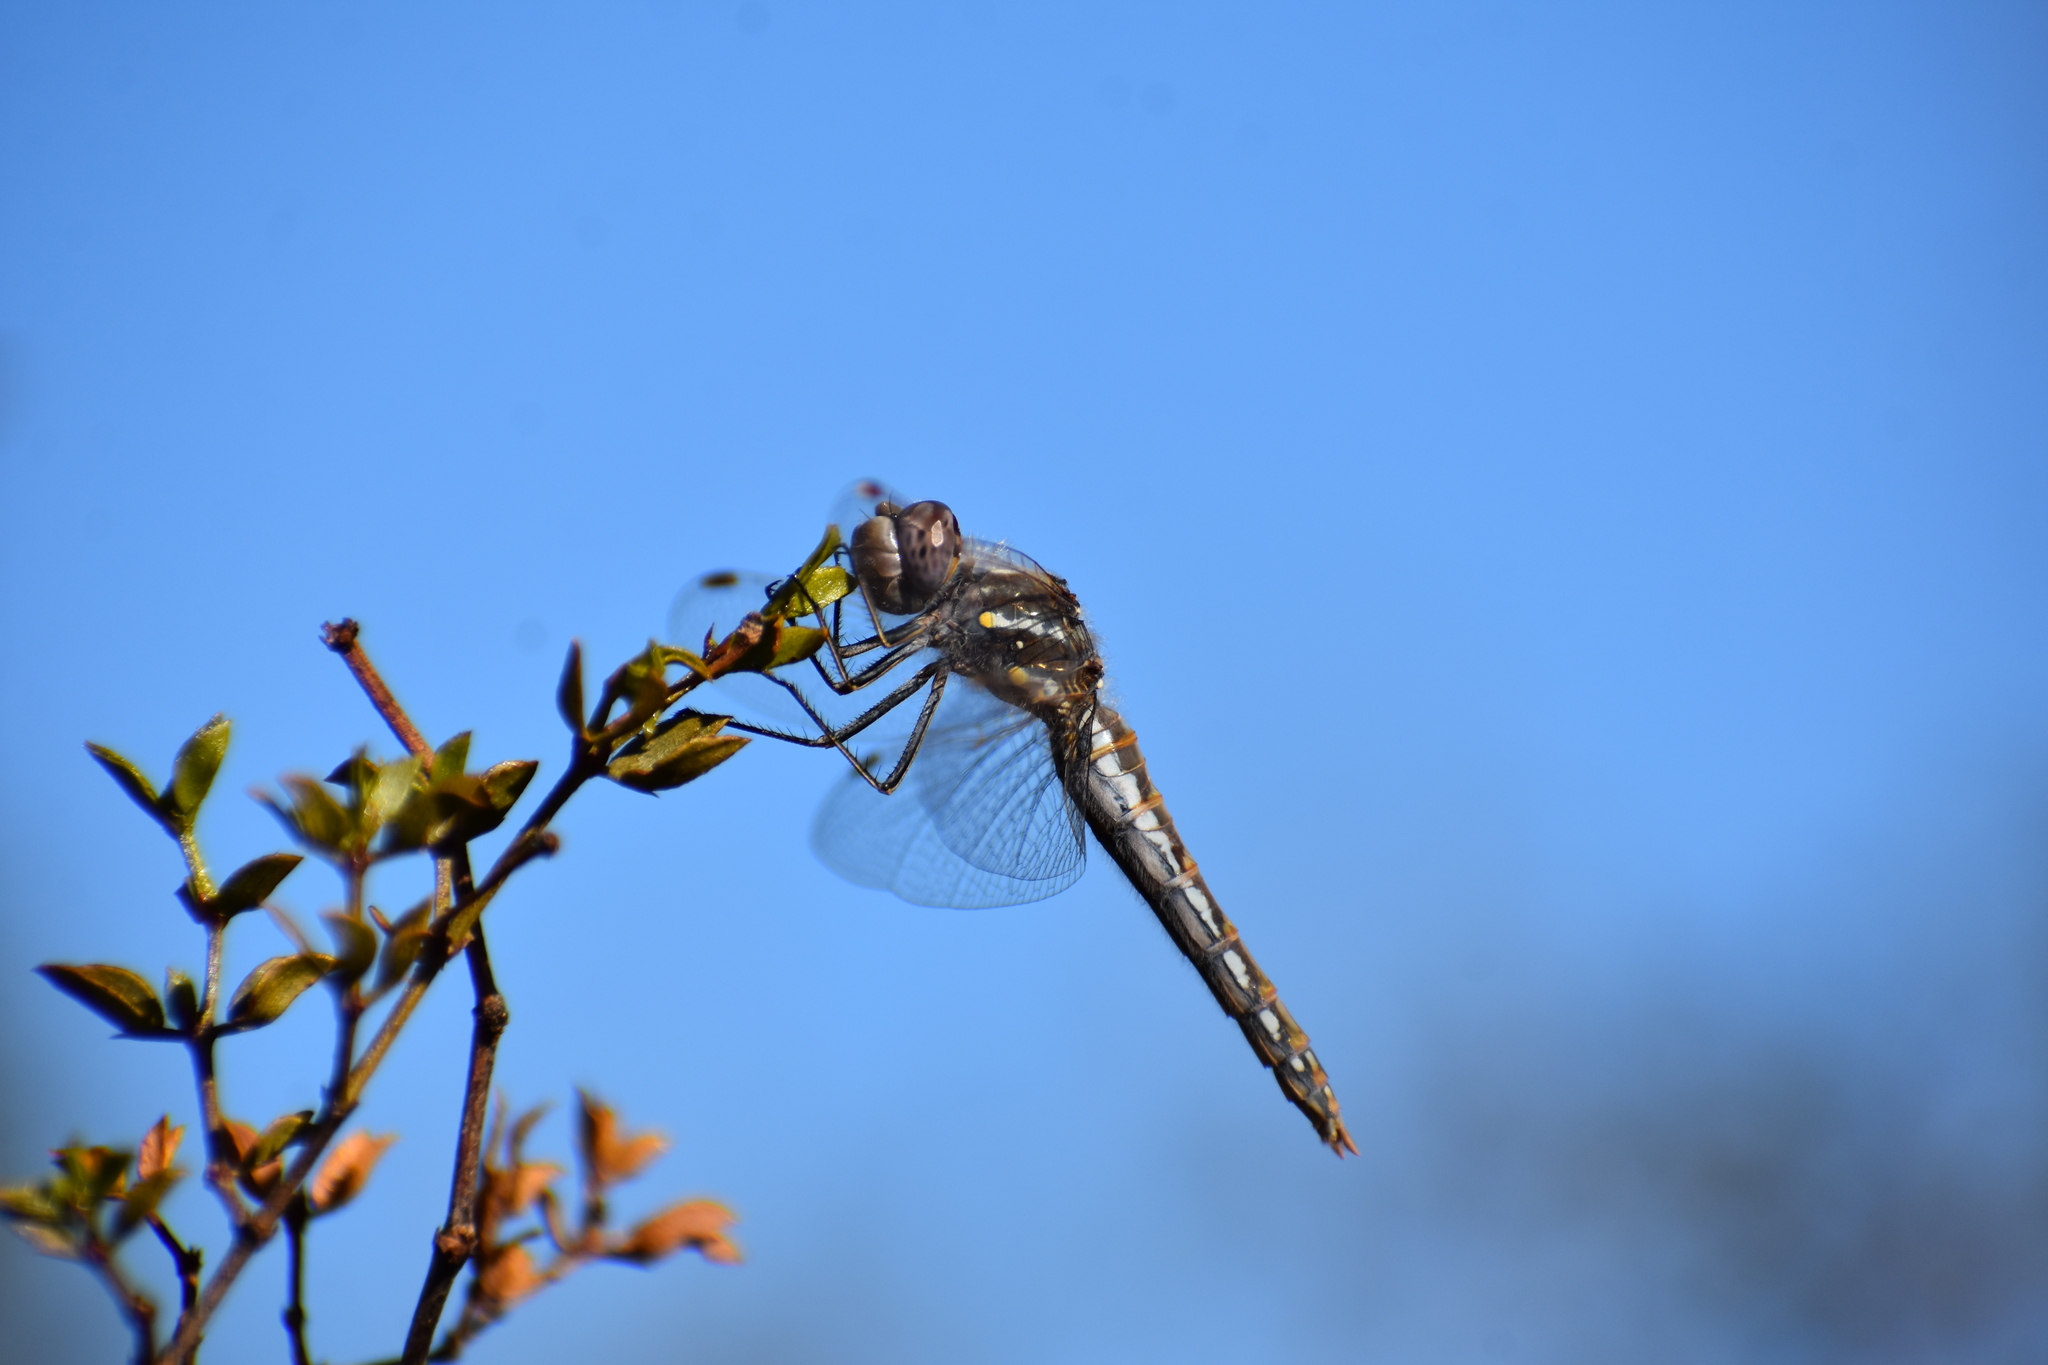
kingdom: Animalia
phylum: Arthropoda
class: Insecta
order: Odonata
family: Libellulidae
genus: Sympetrum
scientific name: Sympetrum corruptum
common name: Variegated meadowhawk
